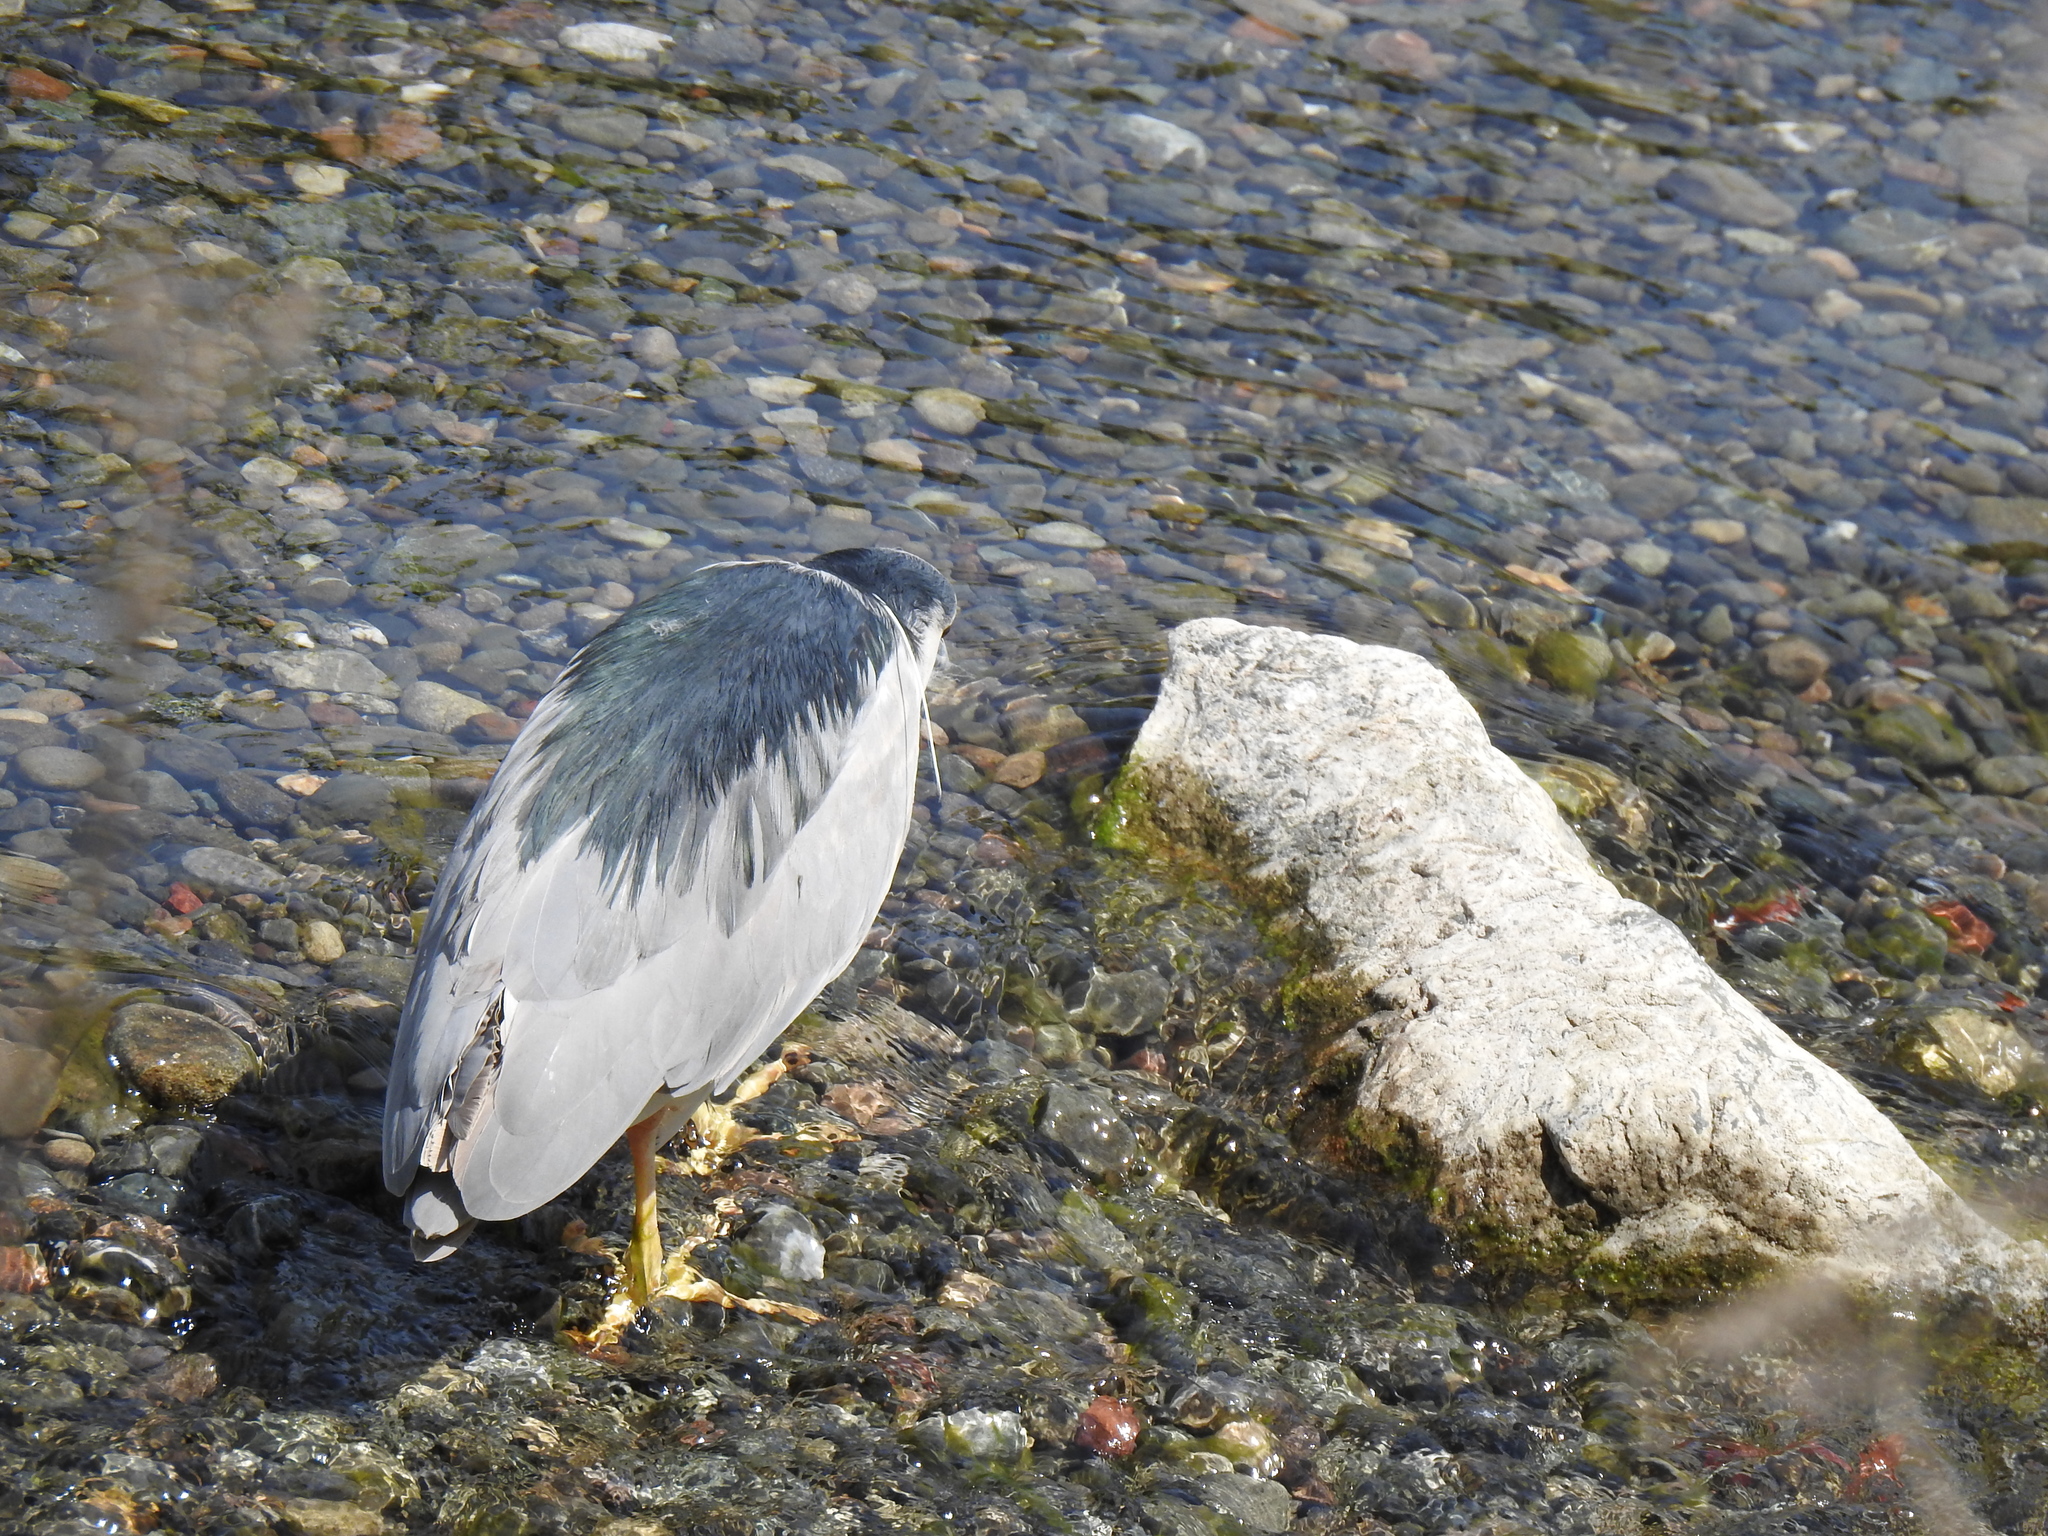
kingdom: Animalia
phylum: Chordata
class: Aves
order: Pelecaniformes
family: Ardeidae
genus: Nycticorax
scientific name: Nycticorax nycticorax
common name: Black-crowned night heron
